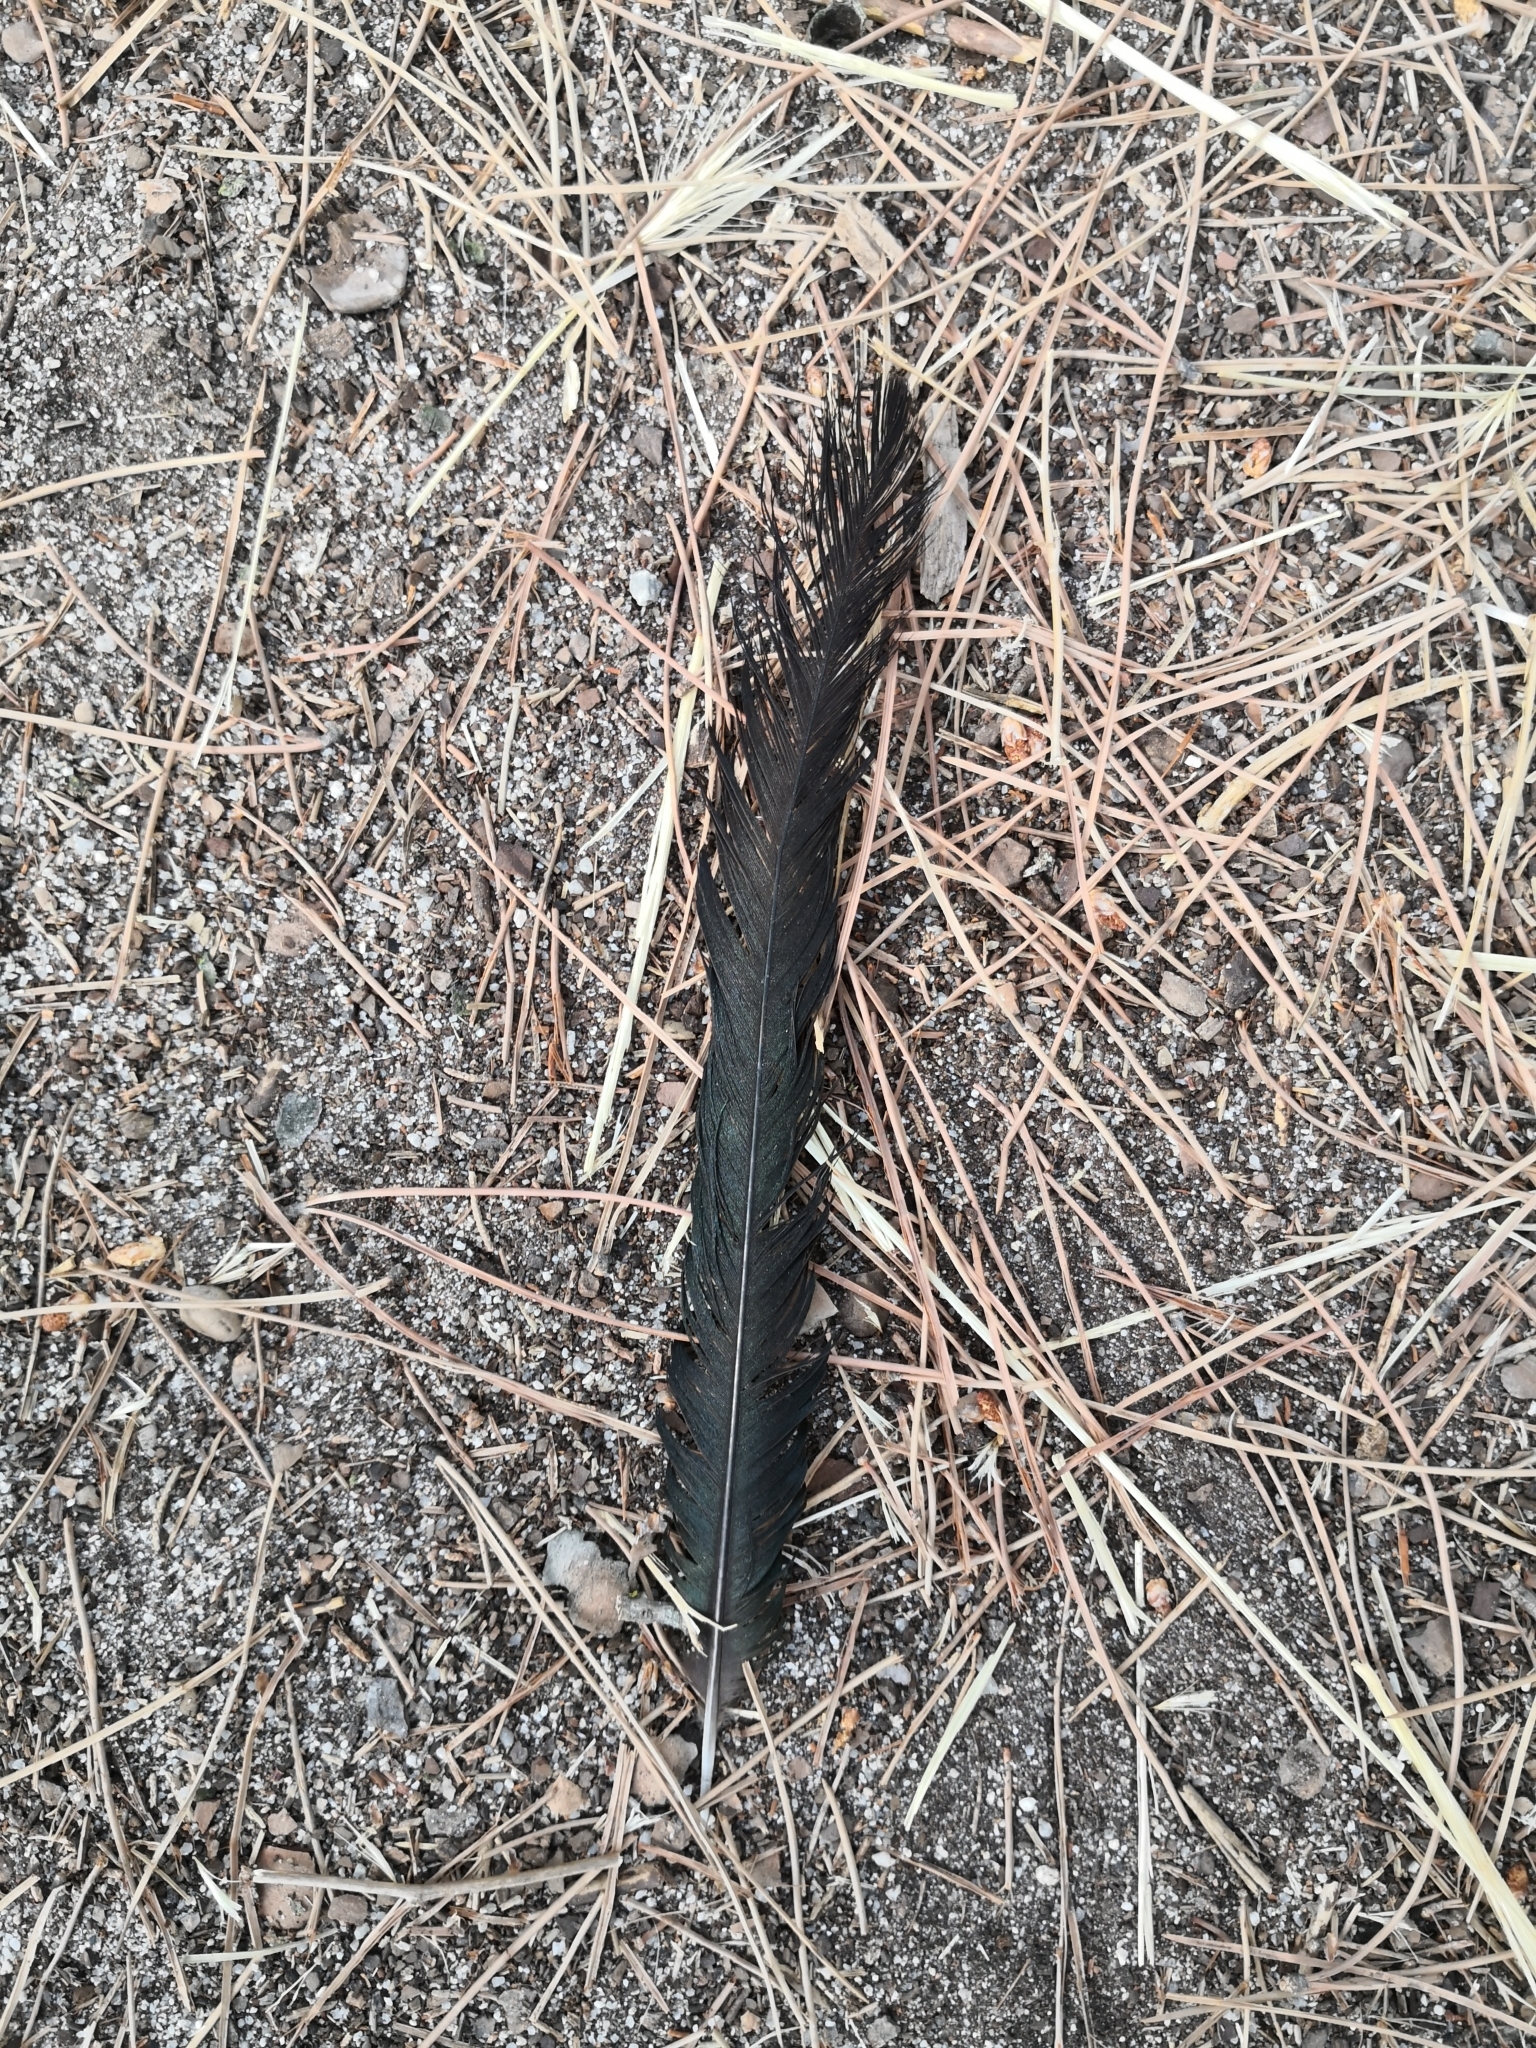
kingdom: Animalia
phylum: Chordata
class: Aves
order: Passeriformes
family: Corvidae
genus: Pica
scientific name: Pica pica
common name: Eurasian magpie
